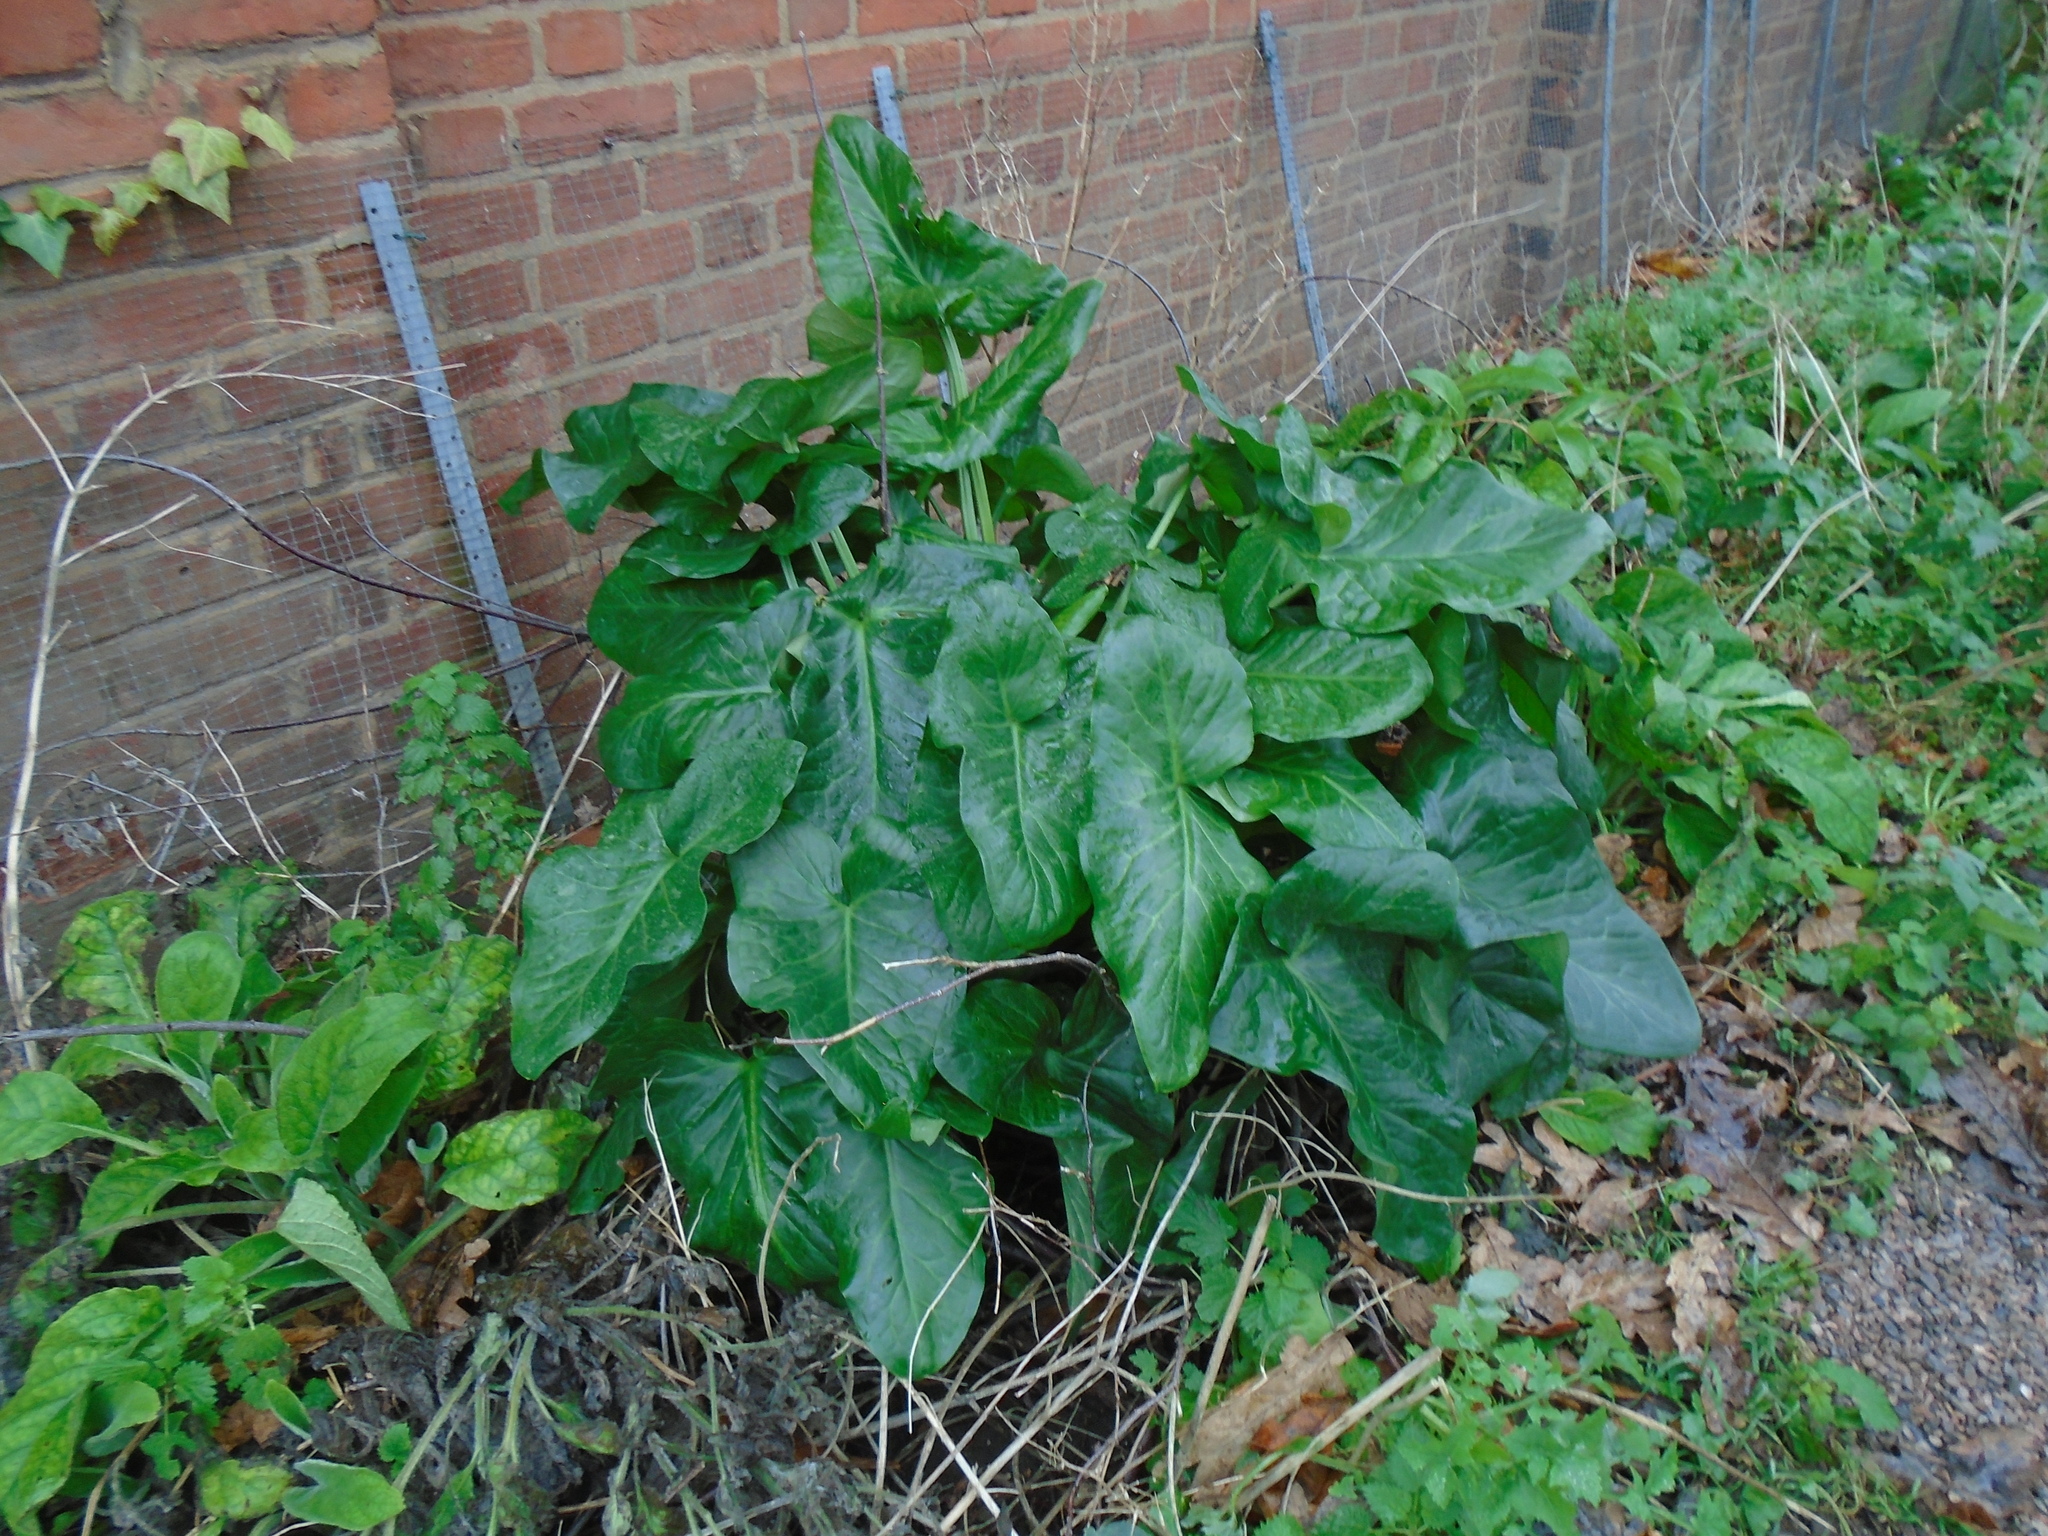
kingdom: Plantae
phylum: Tracheophyta
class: Liliopsida
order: Alismatales
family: Araceae
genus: Arum
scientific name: Arum italicum
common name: Italian lords-and-ladies
